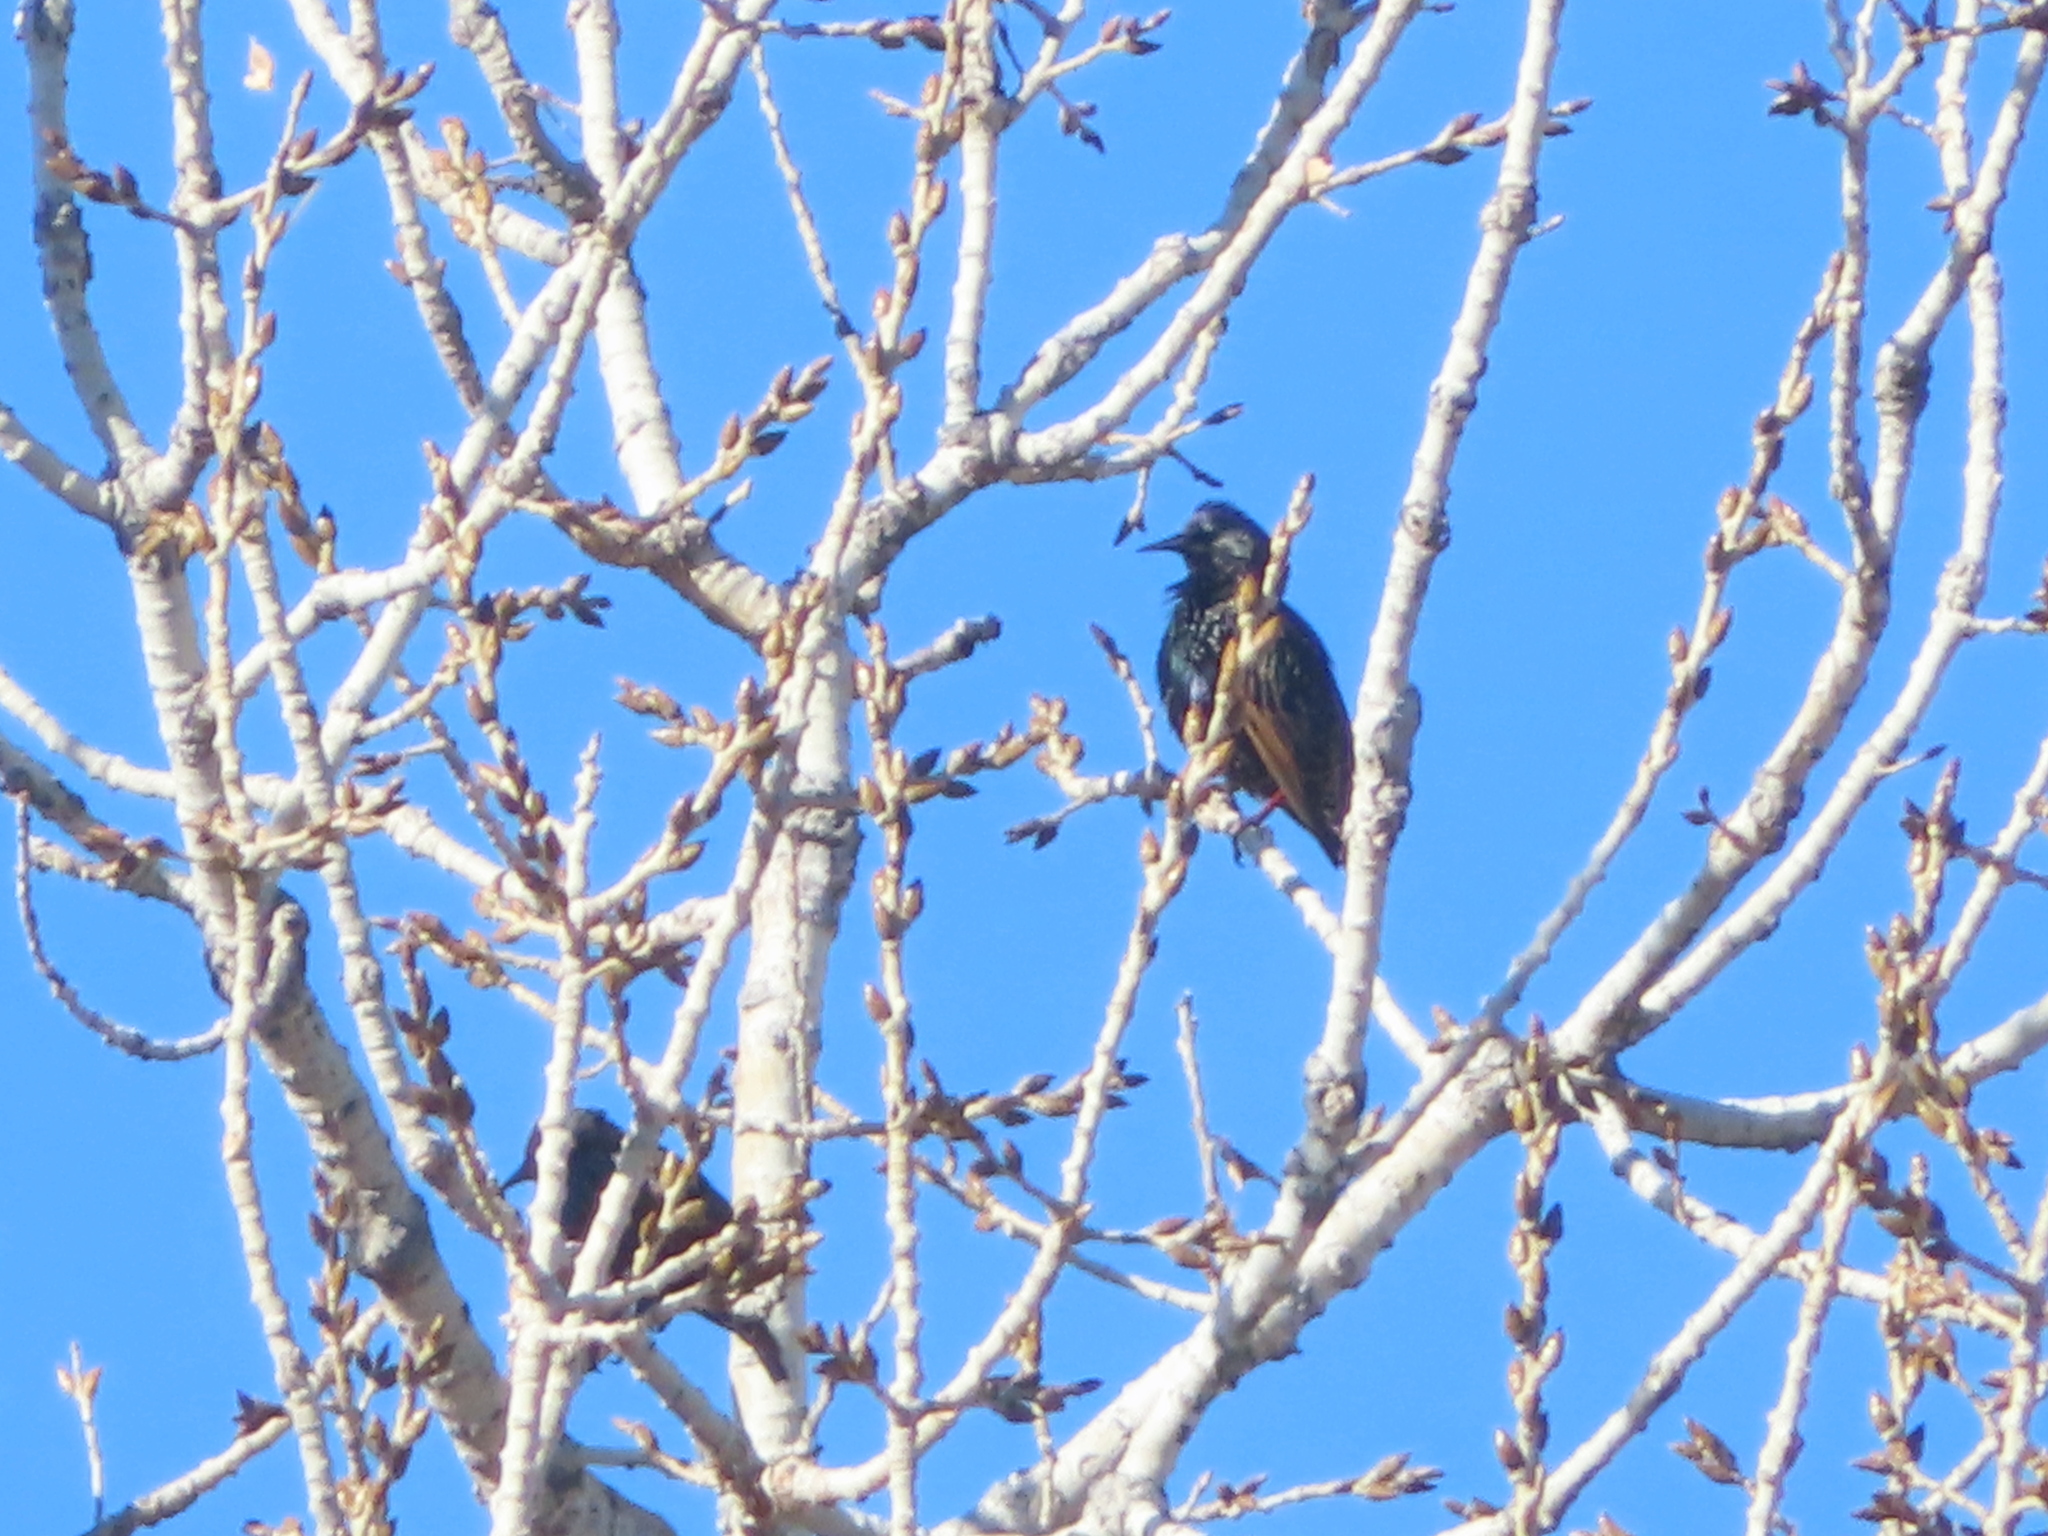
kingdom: Animalia
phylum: Chordata
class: Aves
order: Passeriformes
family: Sturnidae
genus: Sturnus
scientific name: Sturnus vulgaris
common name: Common starling
